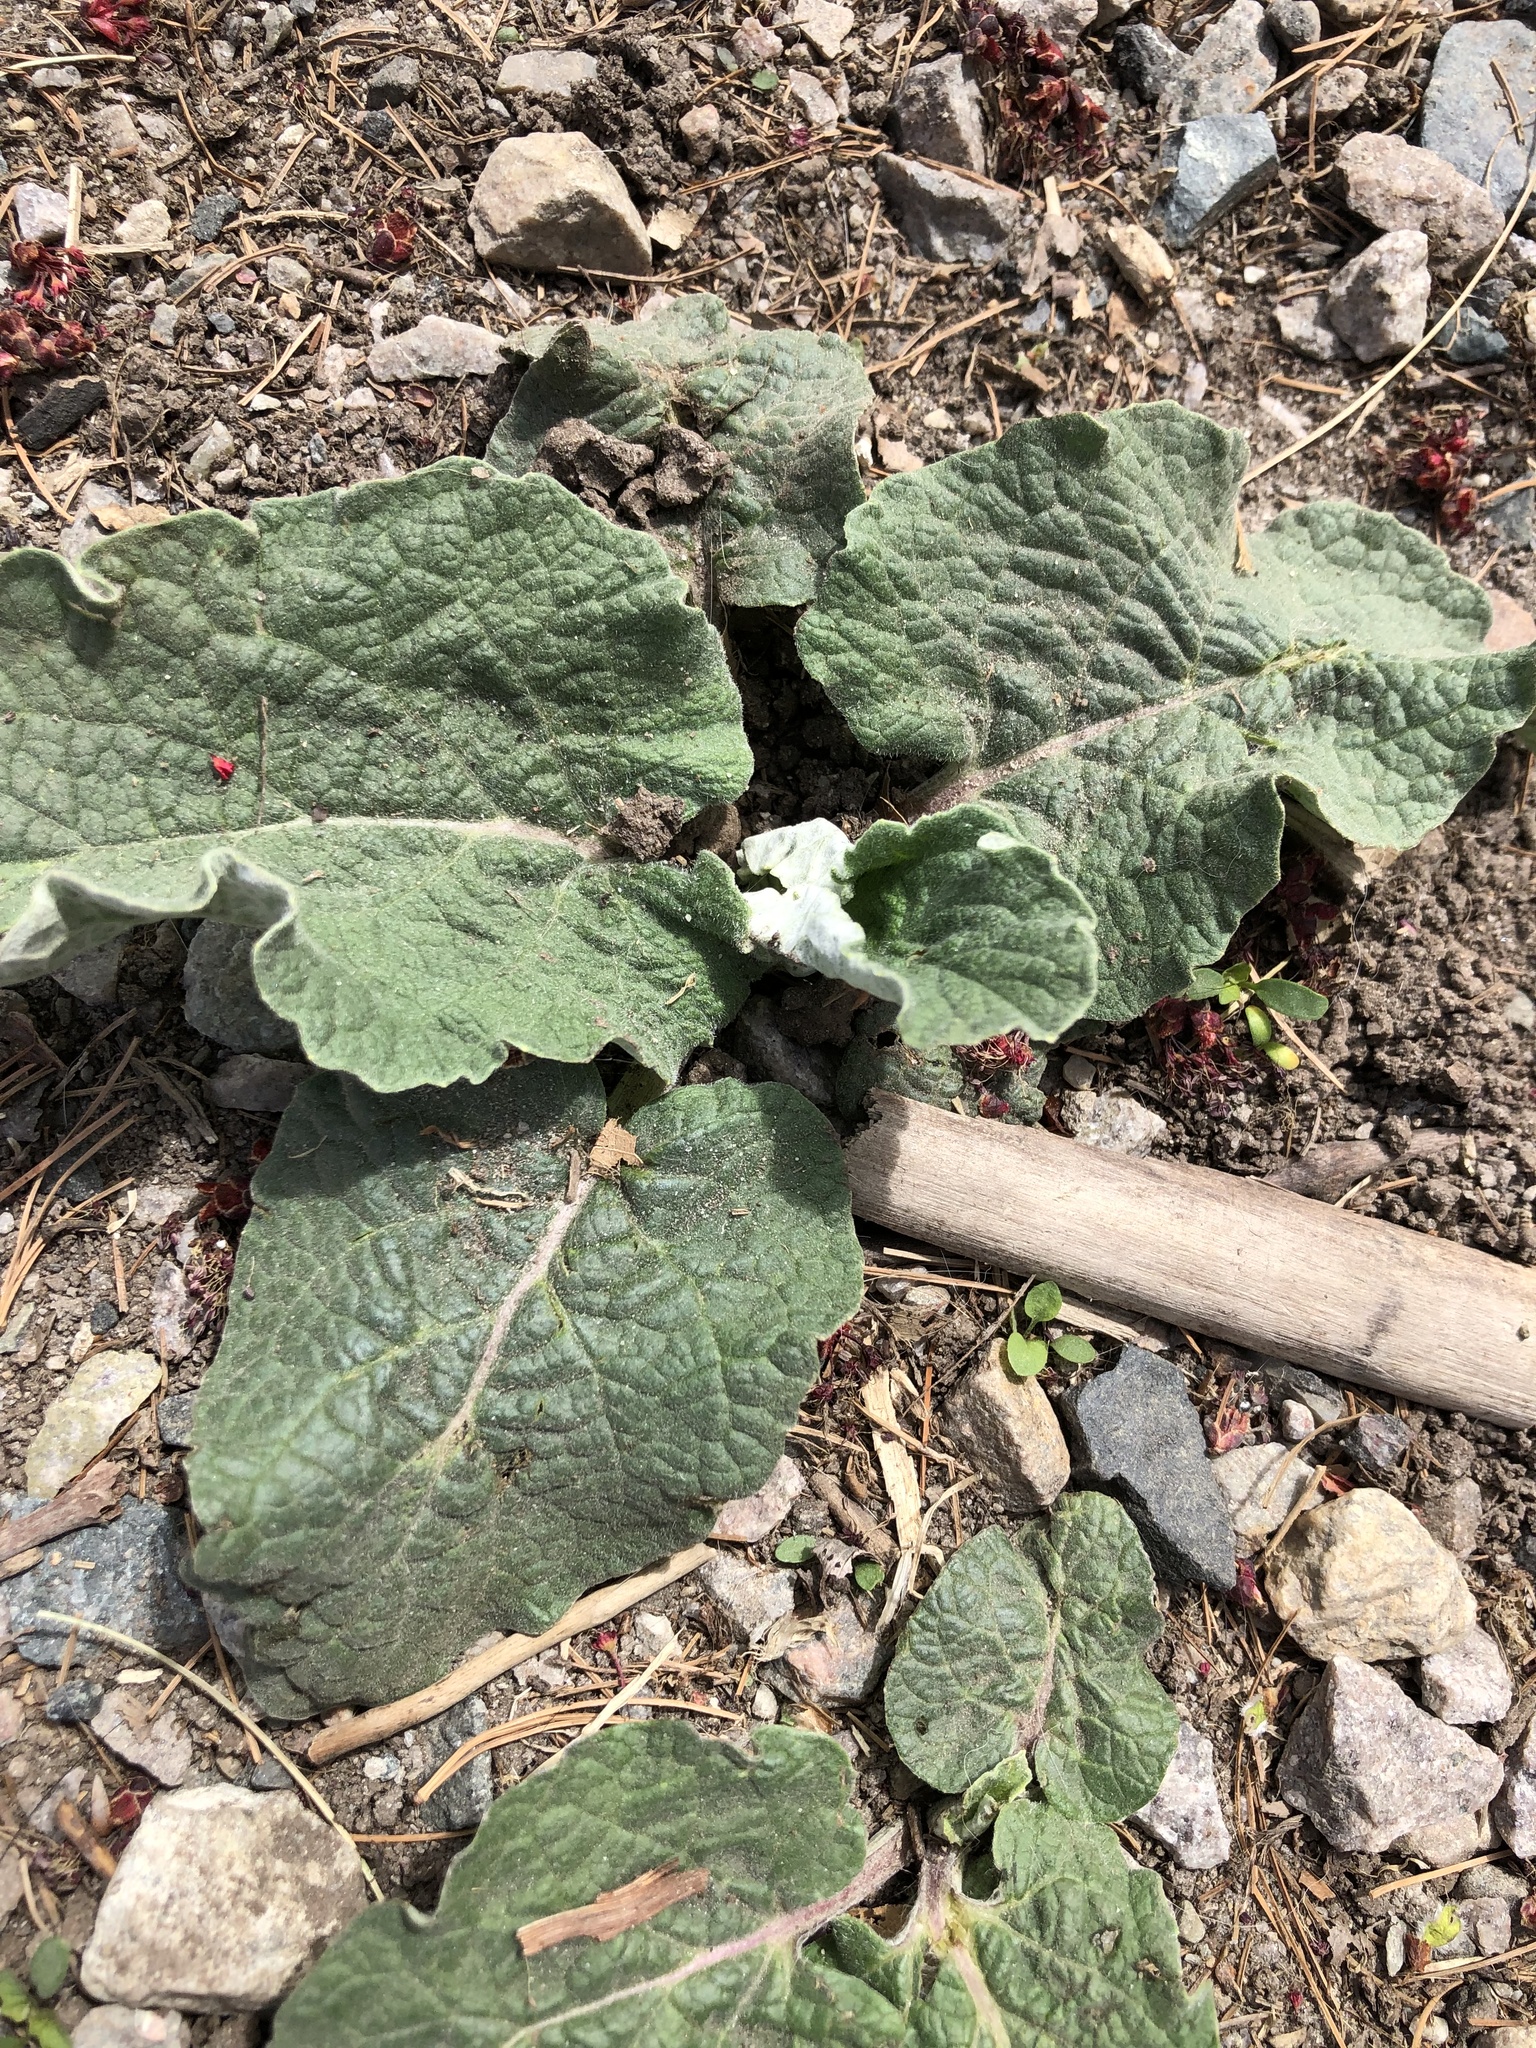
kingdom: Plantae
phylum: Tracheophyta
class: Magnoliopsida
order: Asterales
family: Asteraceae
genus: Arctium
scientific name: Arctium
